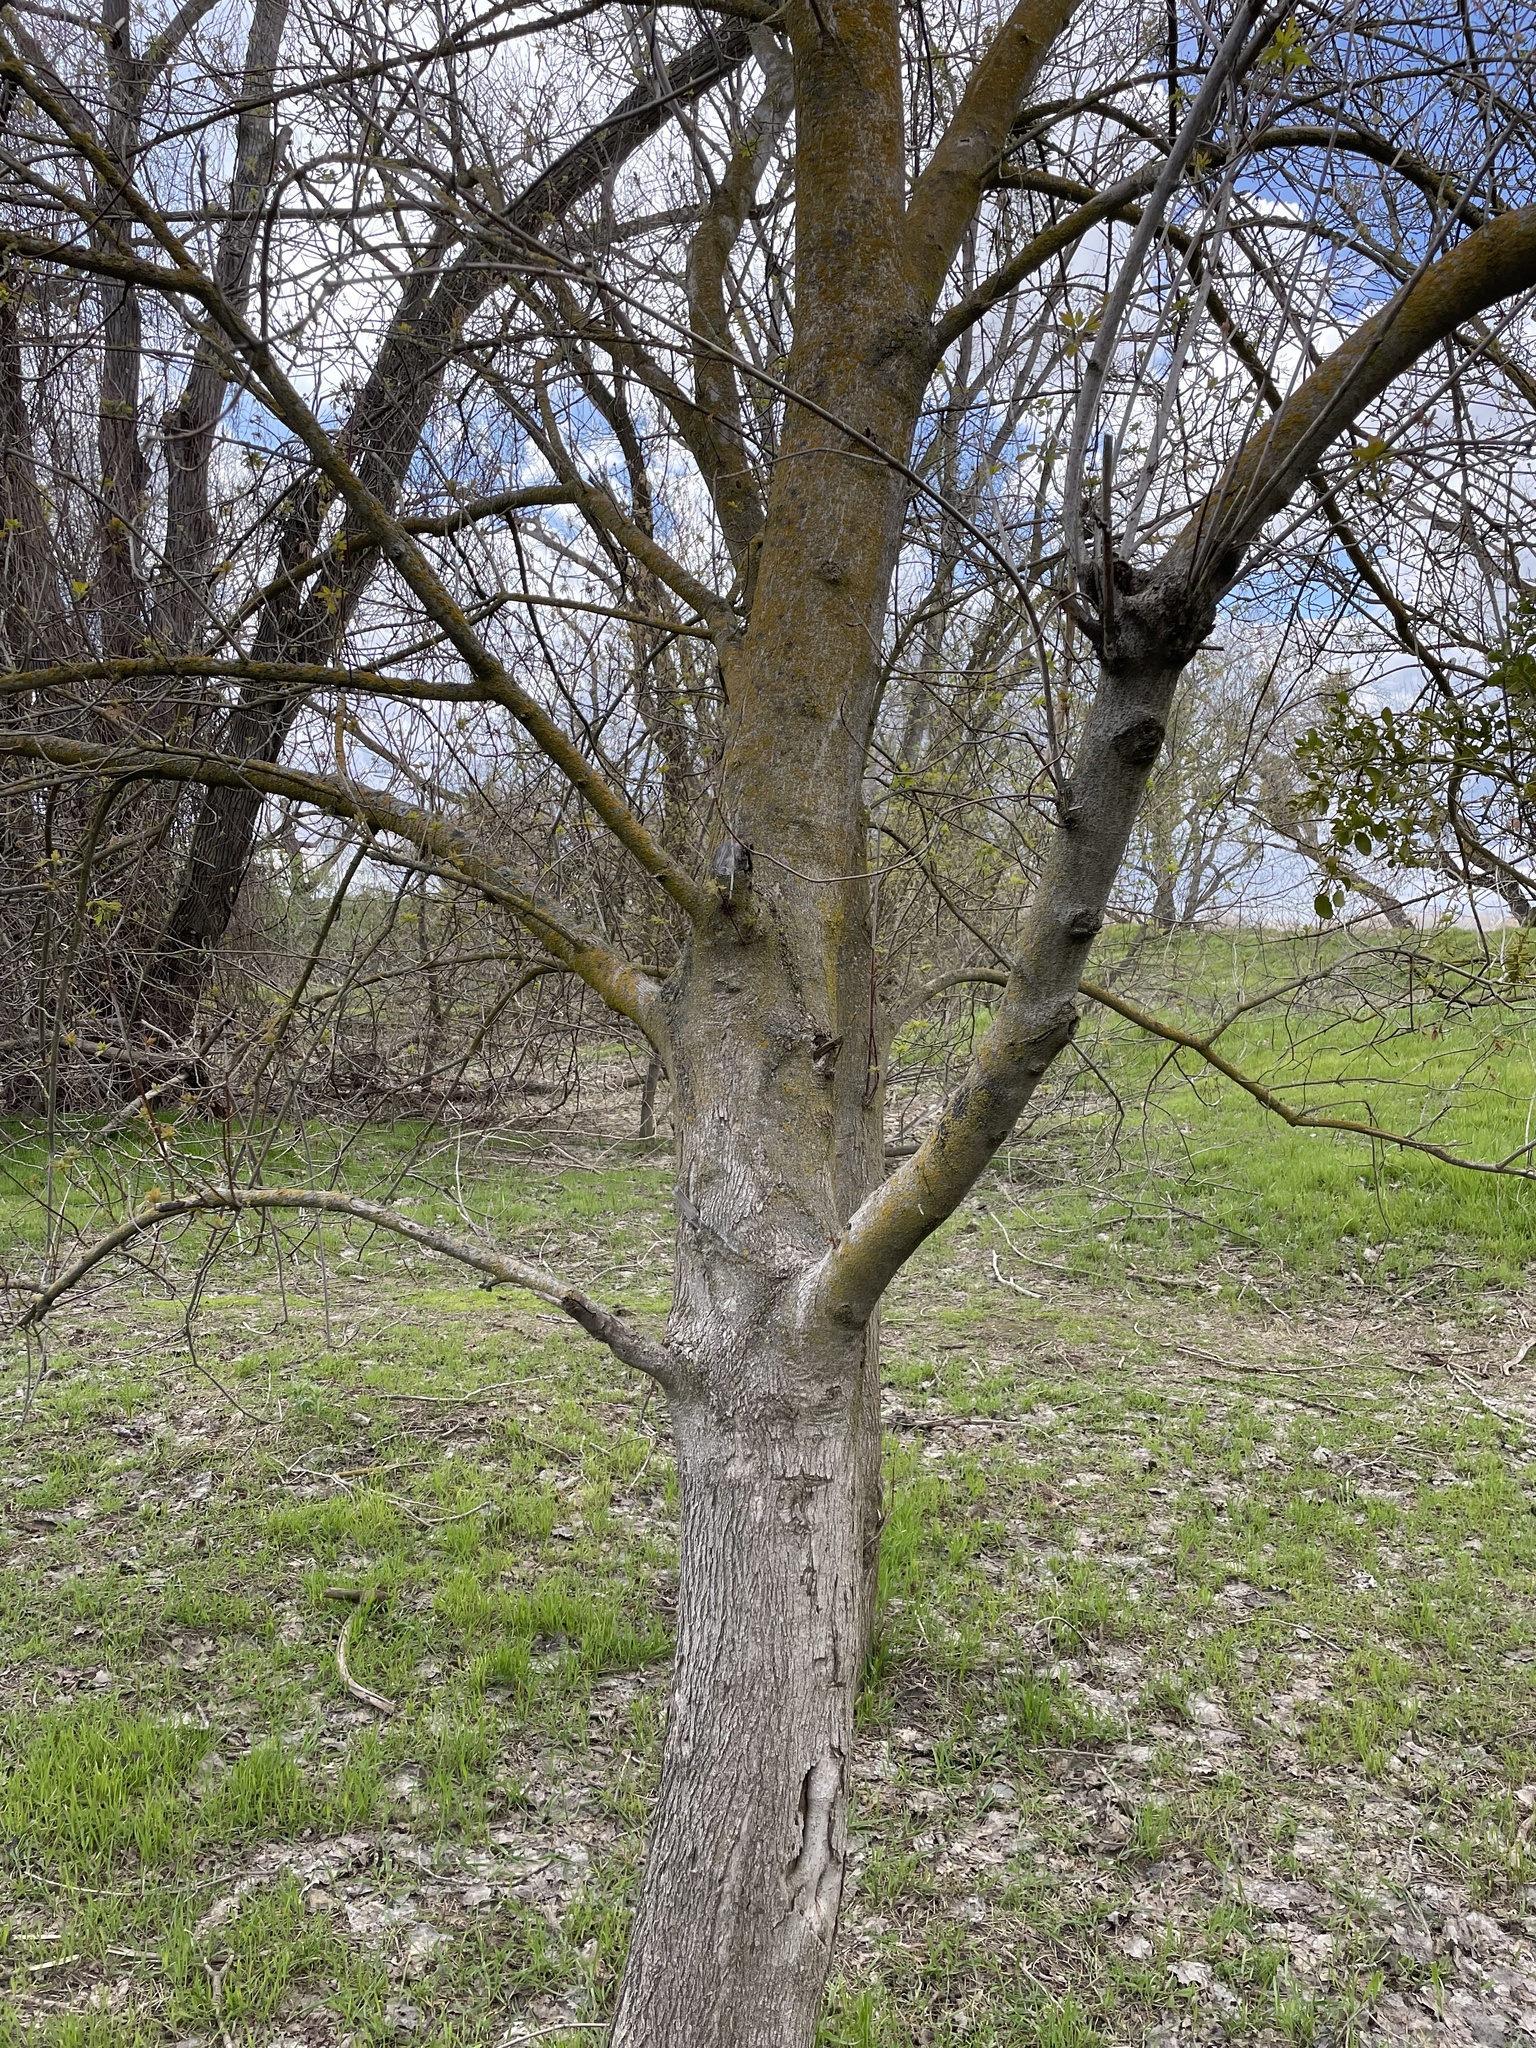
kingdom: Plantae
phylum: Tracheophyta
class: Magnoliopsida
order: Sapindales
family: Sapindaceae
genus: Acer
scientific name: Acer negundo
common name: Ashleaf maple
